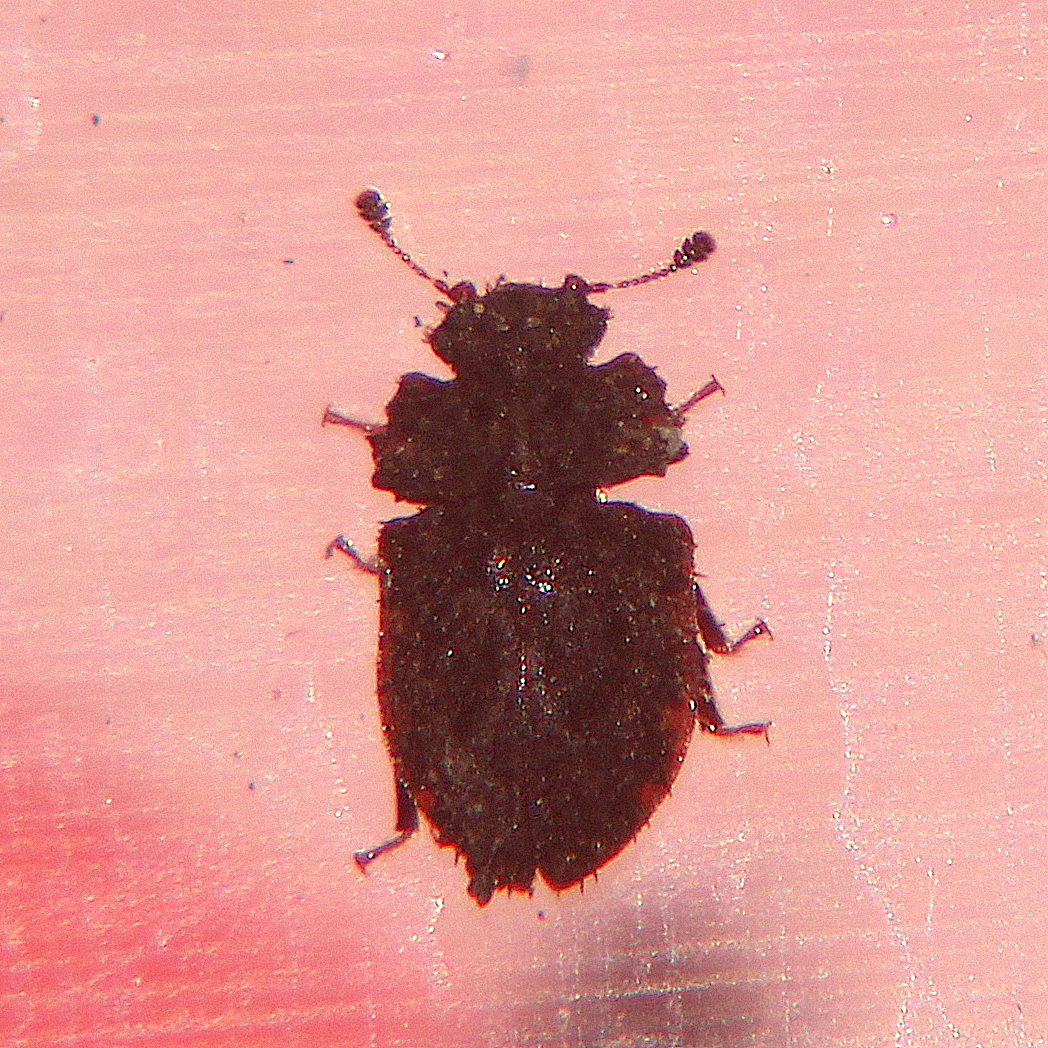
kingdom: Animalia
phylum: Arthropoda
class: Insecta
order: Coleoptera
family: Nitidulidae
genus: Hisparonia
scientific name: Hisparonia
